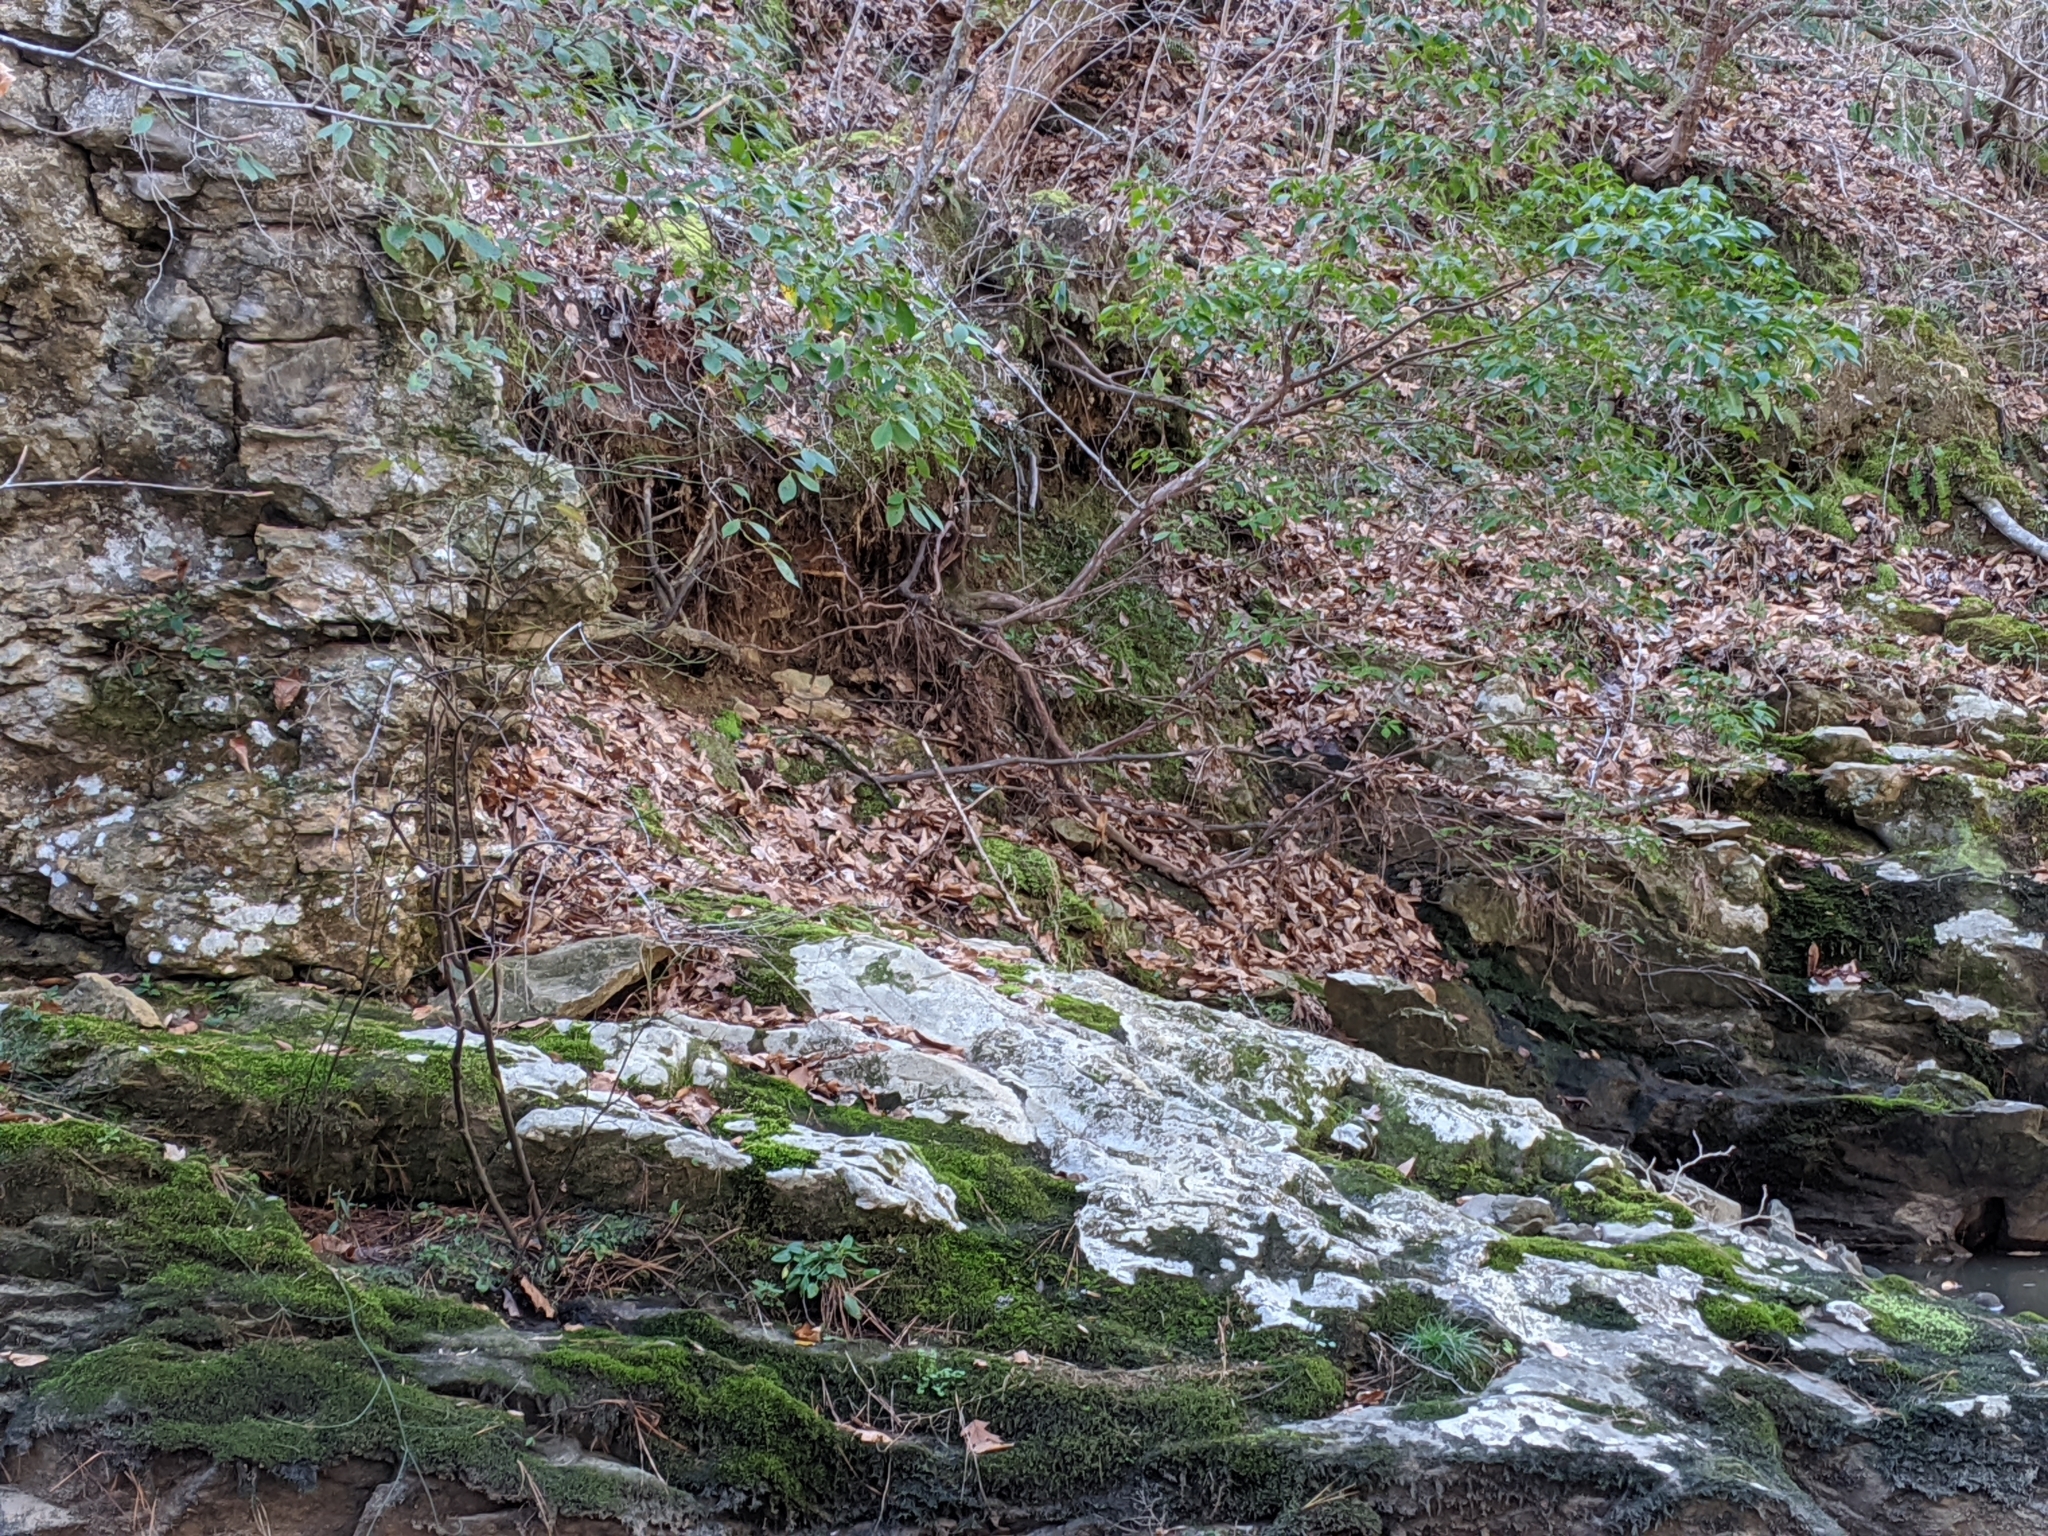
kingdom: Plantae
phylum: Tracheophyta
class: Magnoliopsida
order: Ericales
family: Ericaceae
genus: Kalmia
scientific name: Kalmia latifolia
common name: Mountain-laurel
